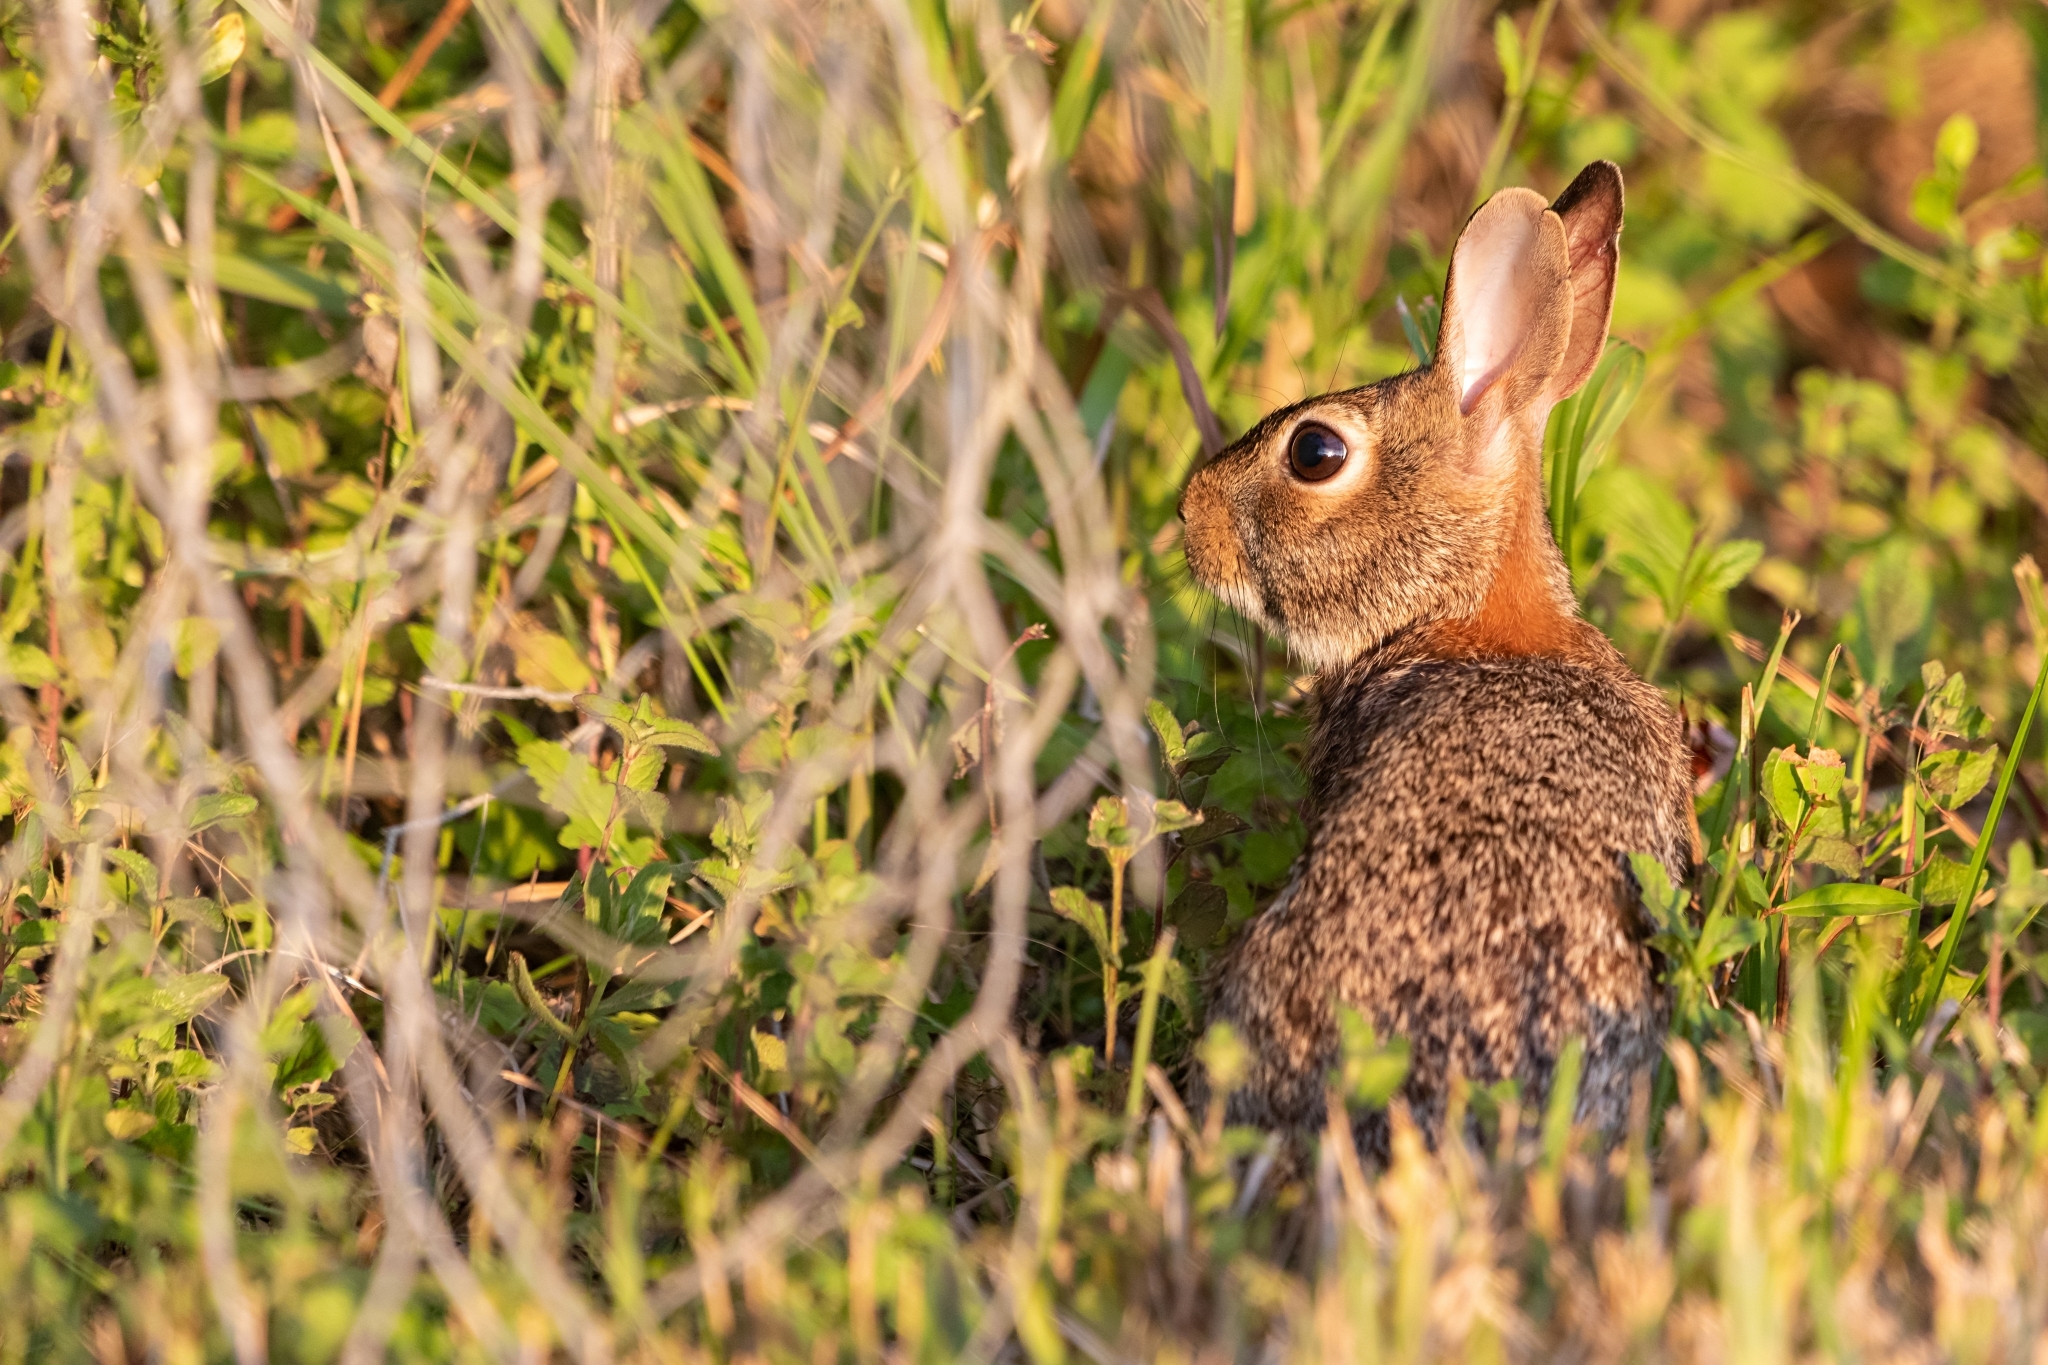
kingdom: Animalia
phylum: Chordata
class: Mammalia
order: Lagomorpha
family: Leporidae
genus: Sylvilagus
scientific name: Sylvilagus floridanus
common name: Eastern cottontail
